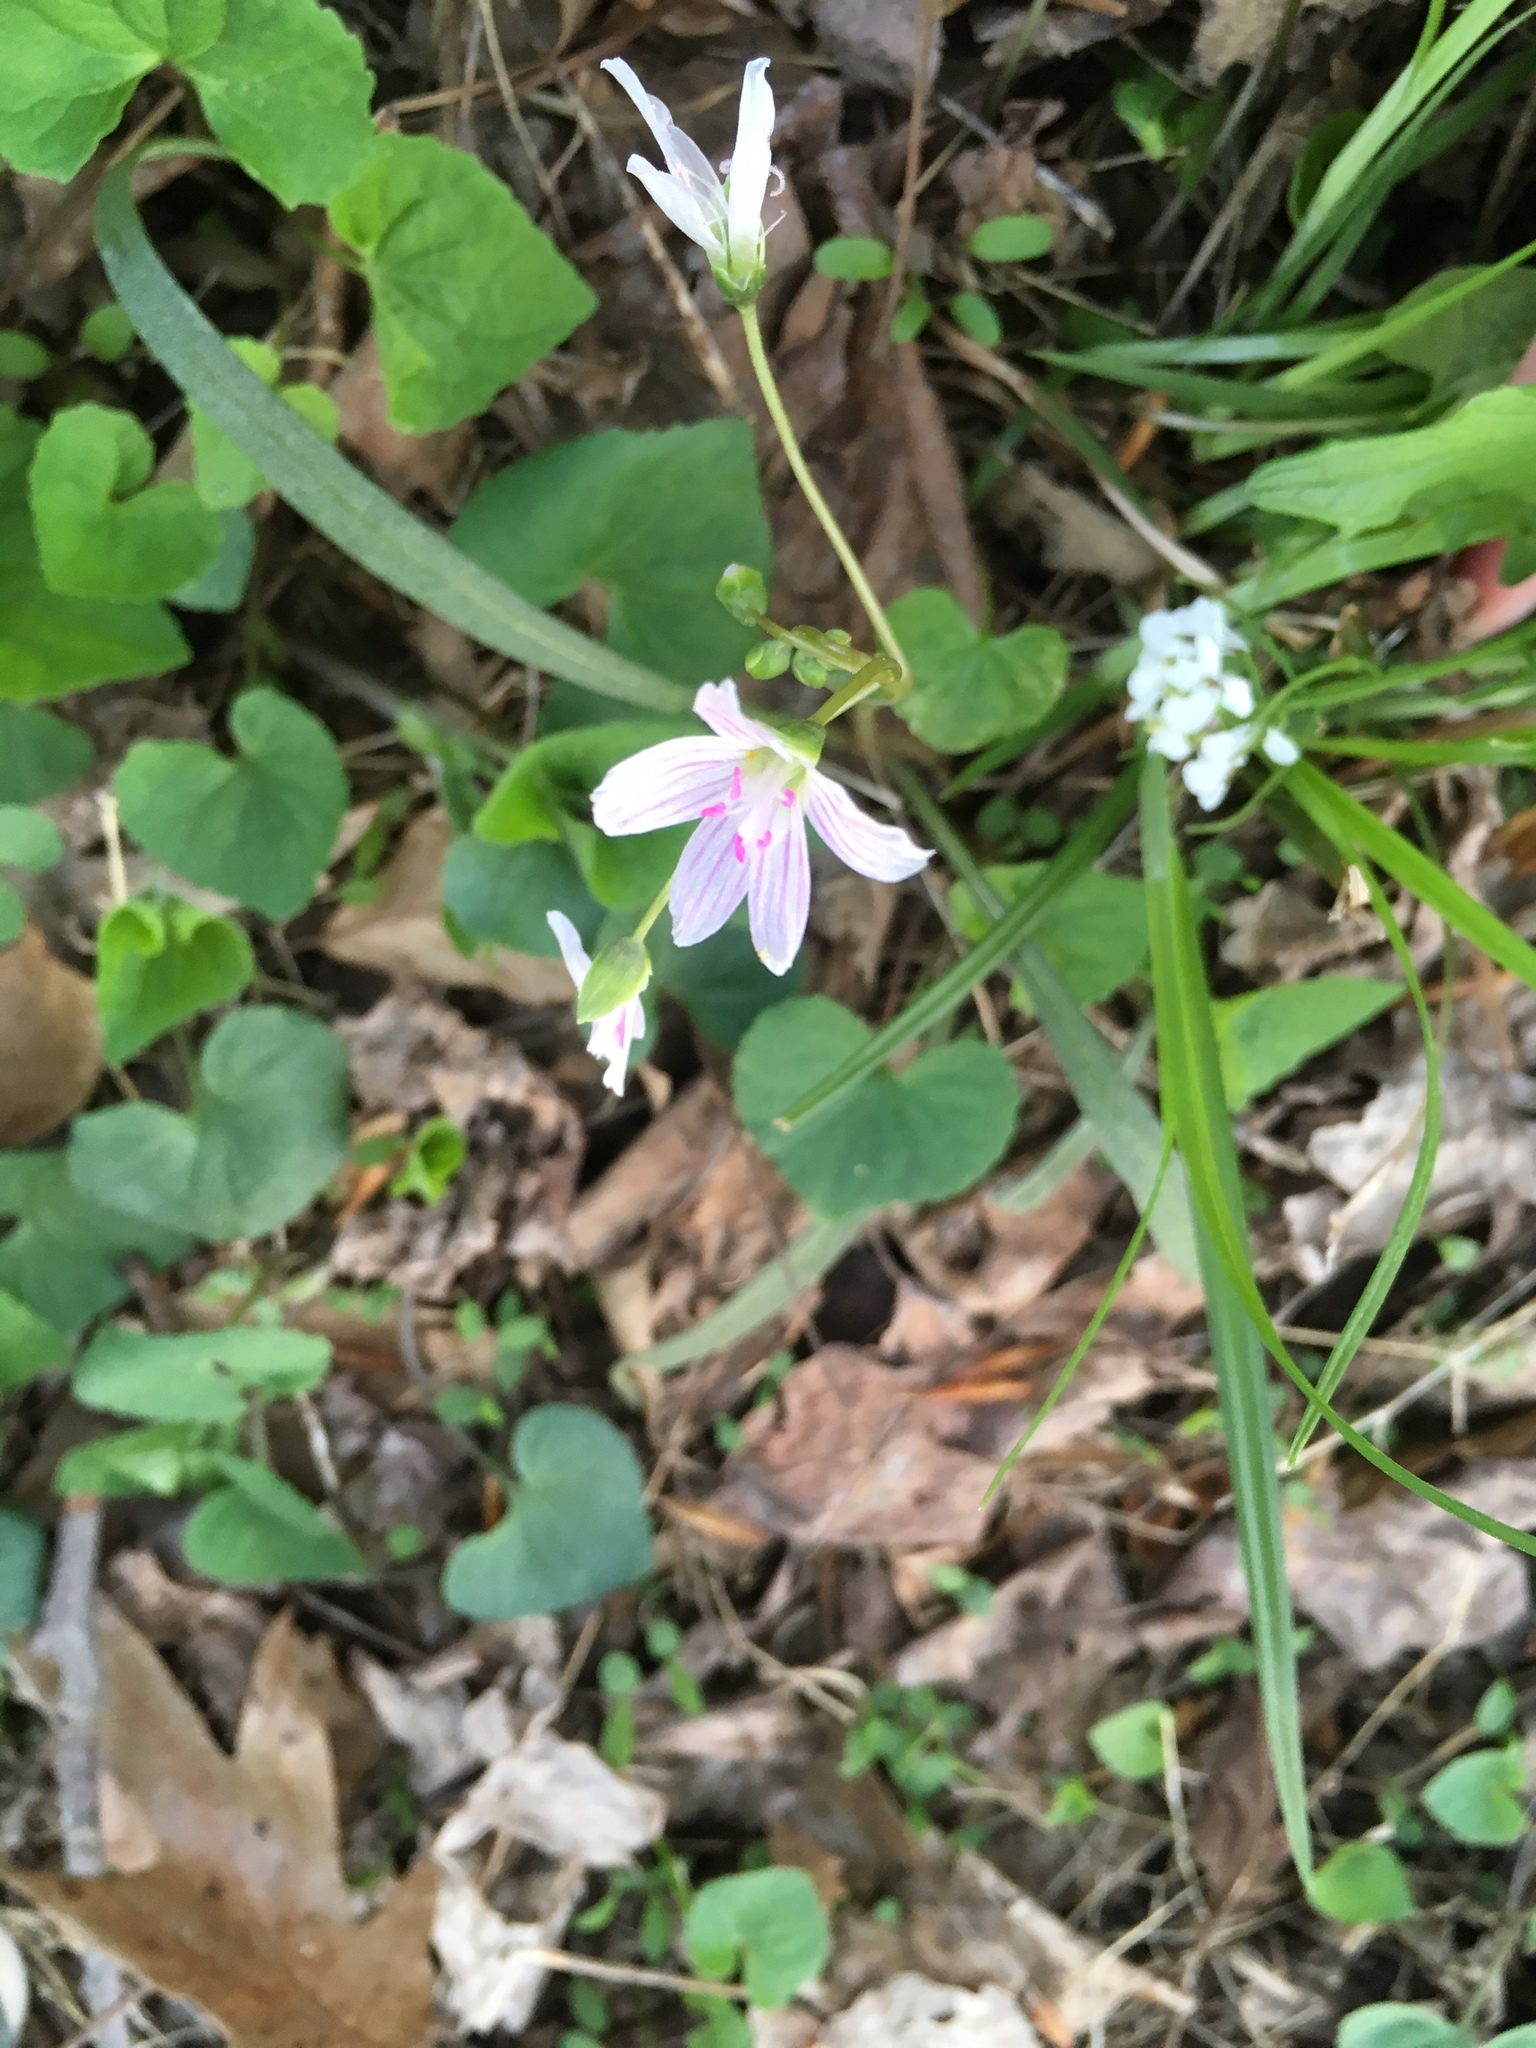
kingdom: Plantae
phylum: Tracheophyta
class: Magnoliopsida
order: Caryophyllales
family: Montiaceae
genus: Claytonia
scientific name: Claytonia virginica
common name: Virginia springbeauty
